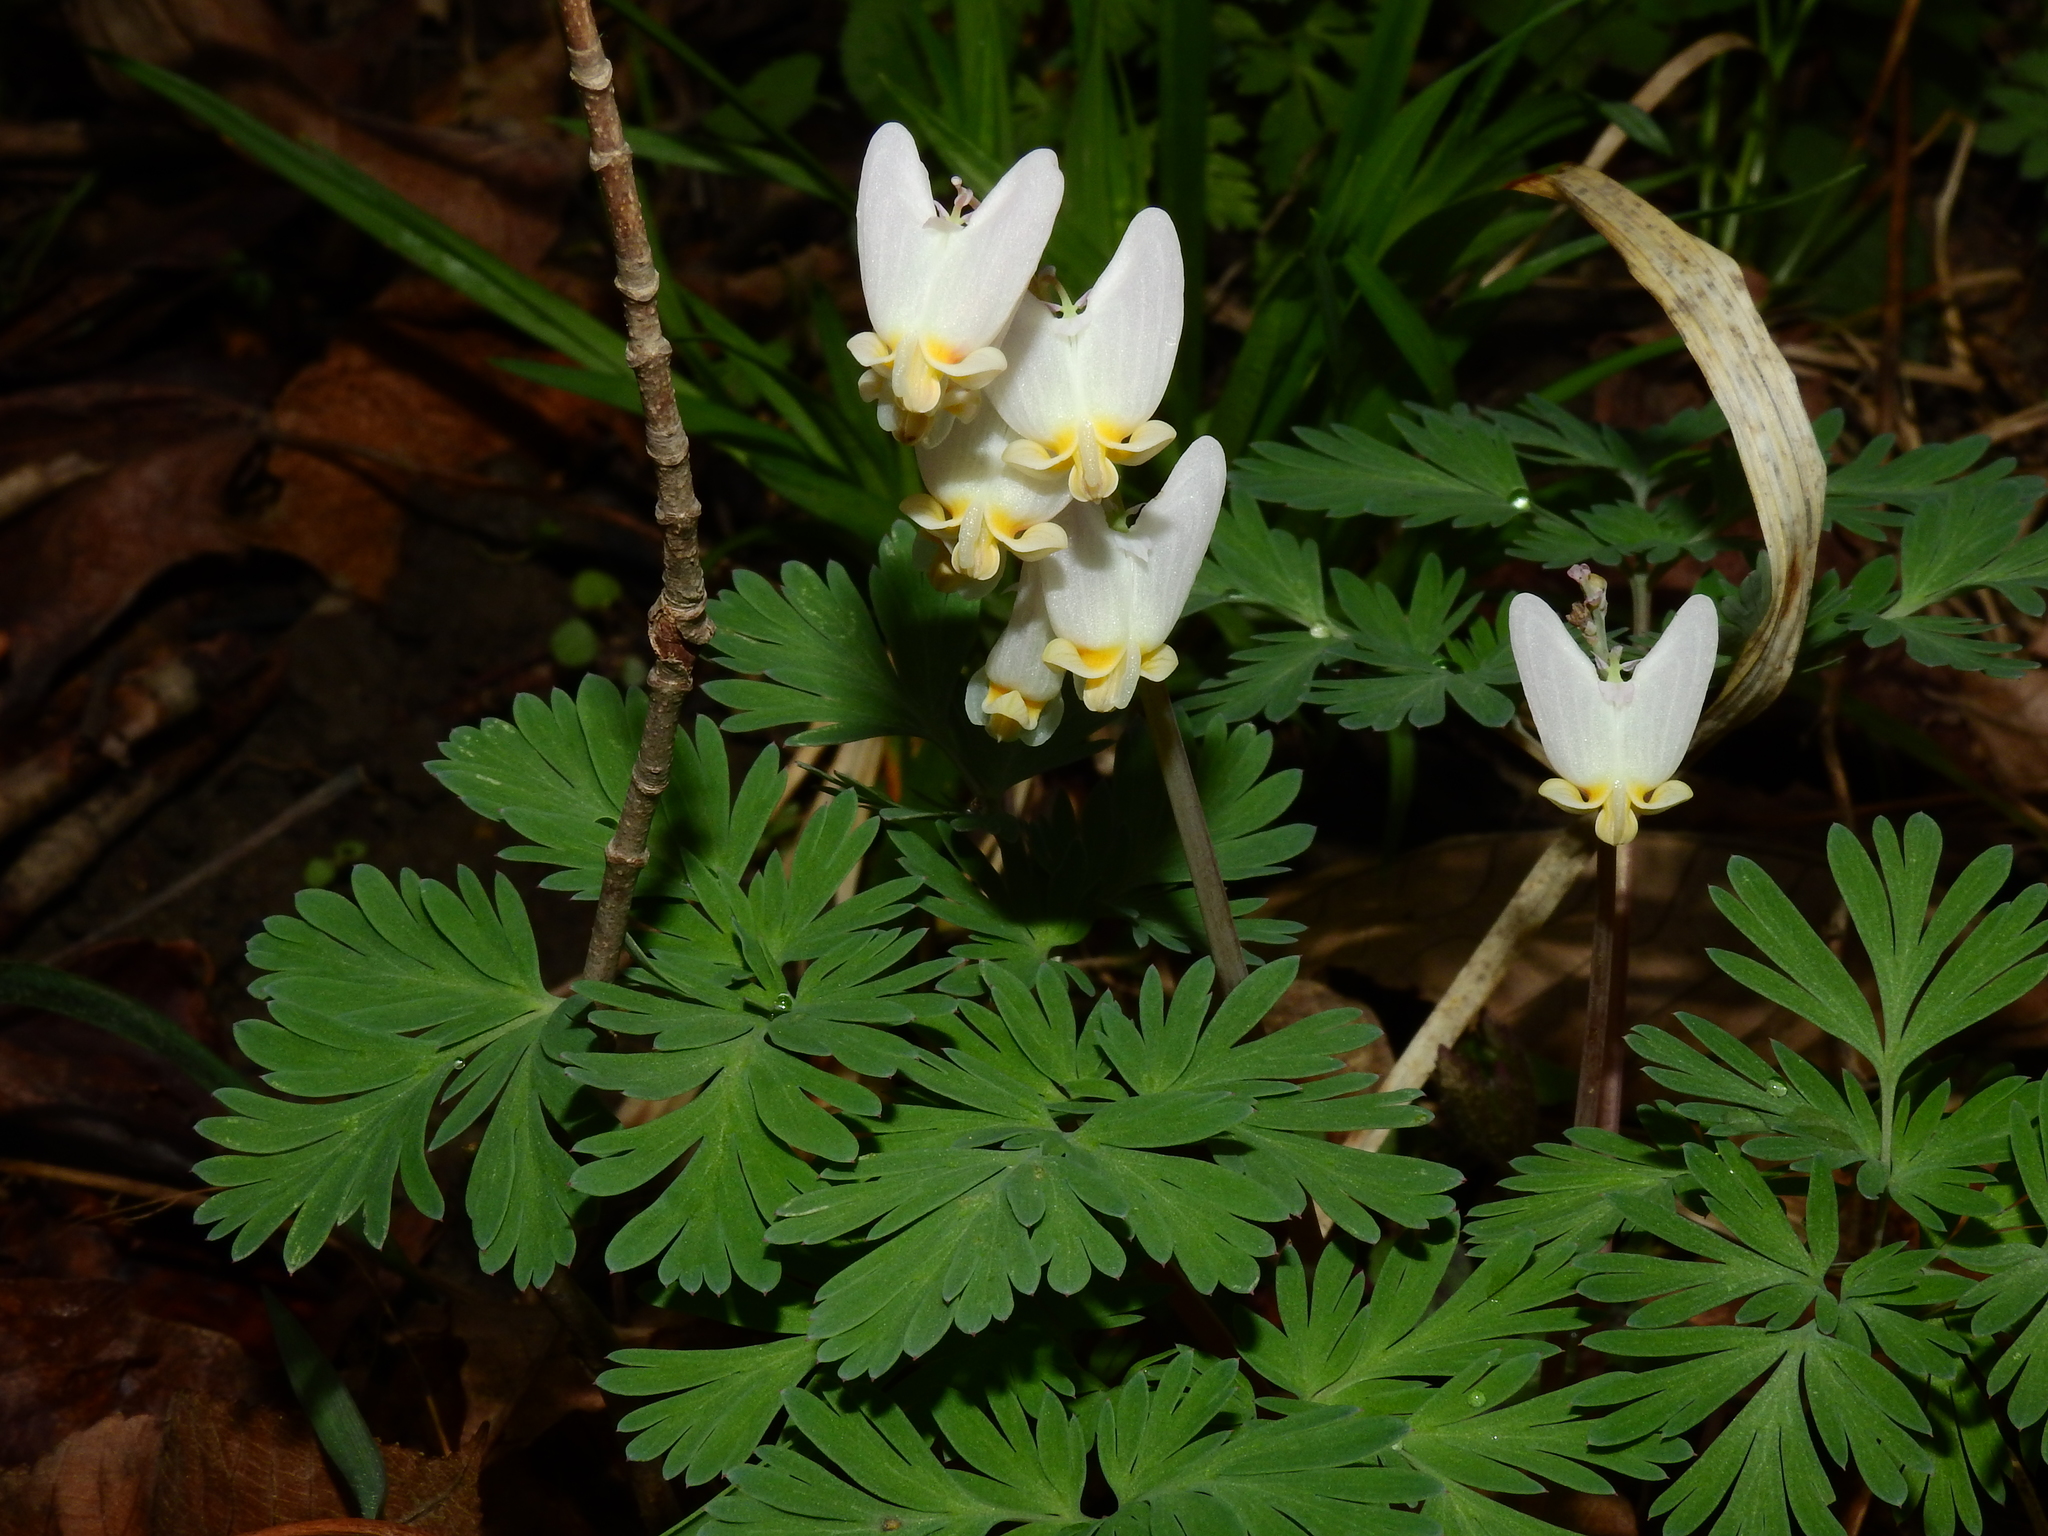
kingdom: Plantae
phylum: Tracheophyta
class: Magnoliopsida
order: Ranunculales
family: Papaveraceae
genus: Dicentra
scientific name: Dicentra cucullaria
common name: Dutchman's breeches
